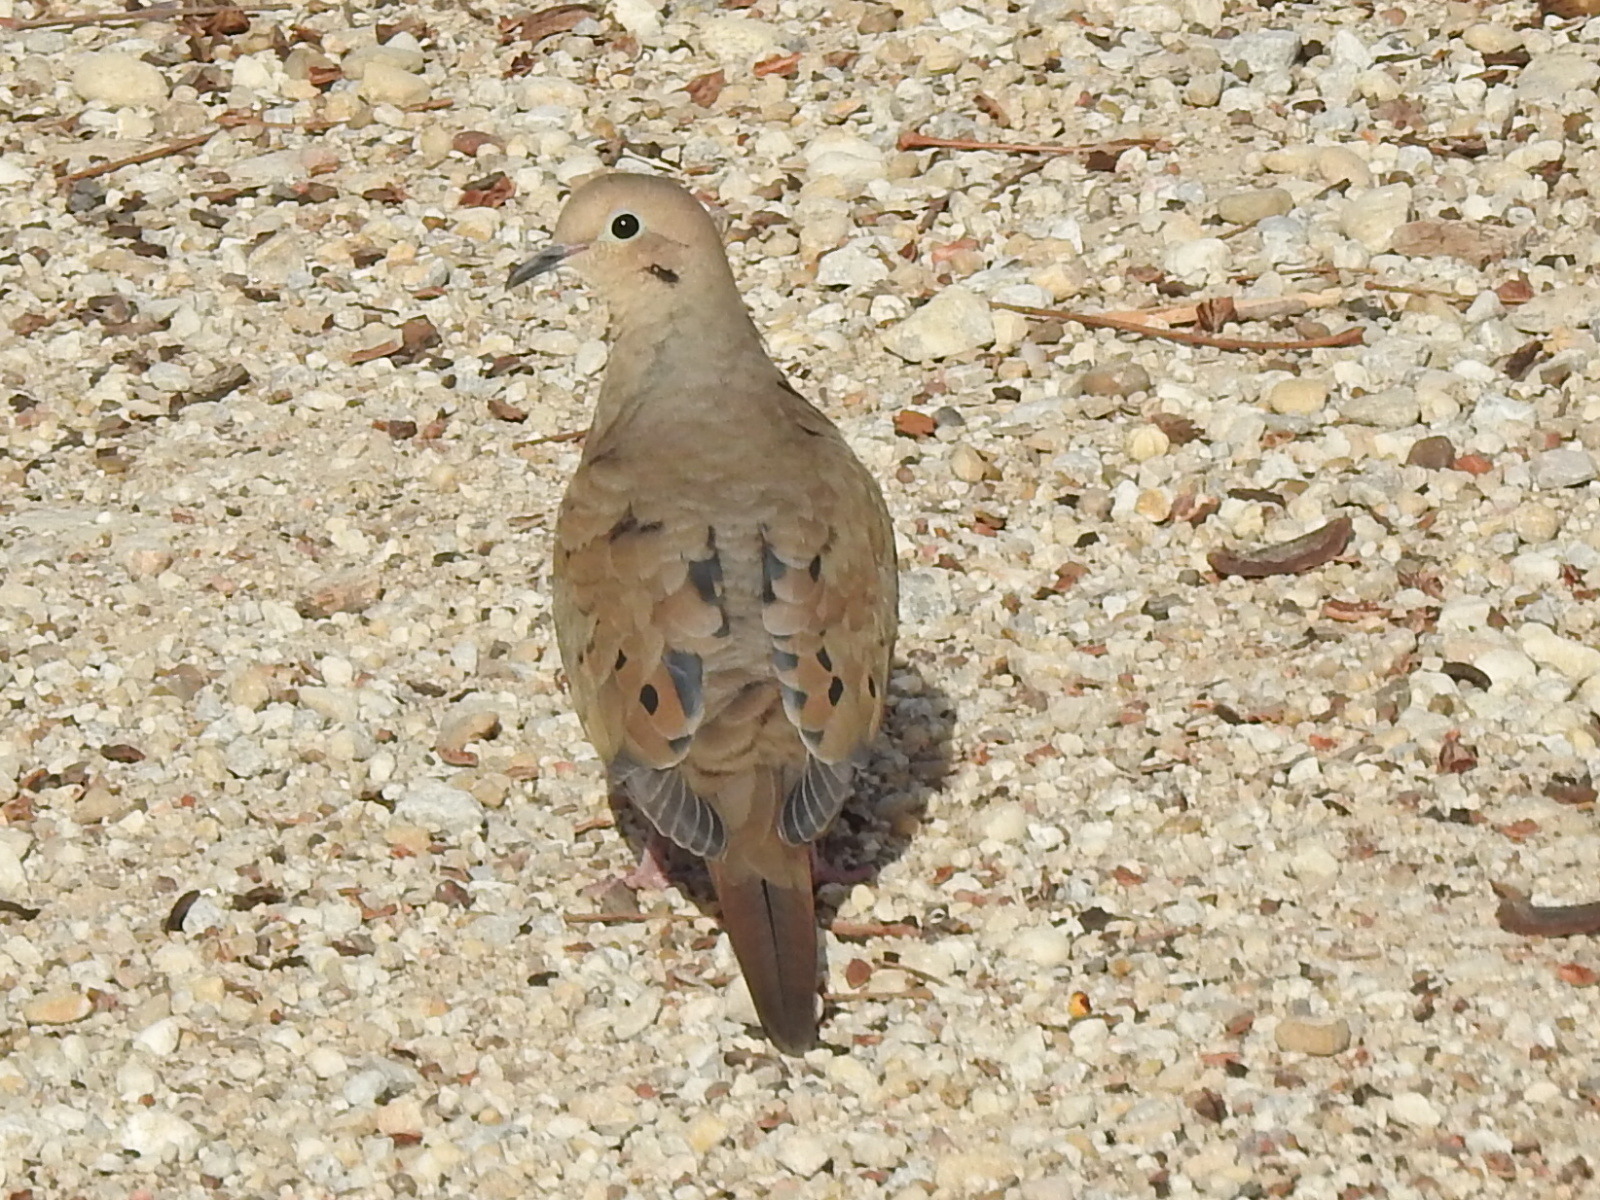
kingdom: Animalia
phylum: Chordata
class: Aves
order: Columbiformes
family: Columbidae
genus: Zenaida
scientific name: Zenaida macroura
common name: Mourning dove
